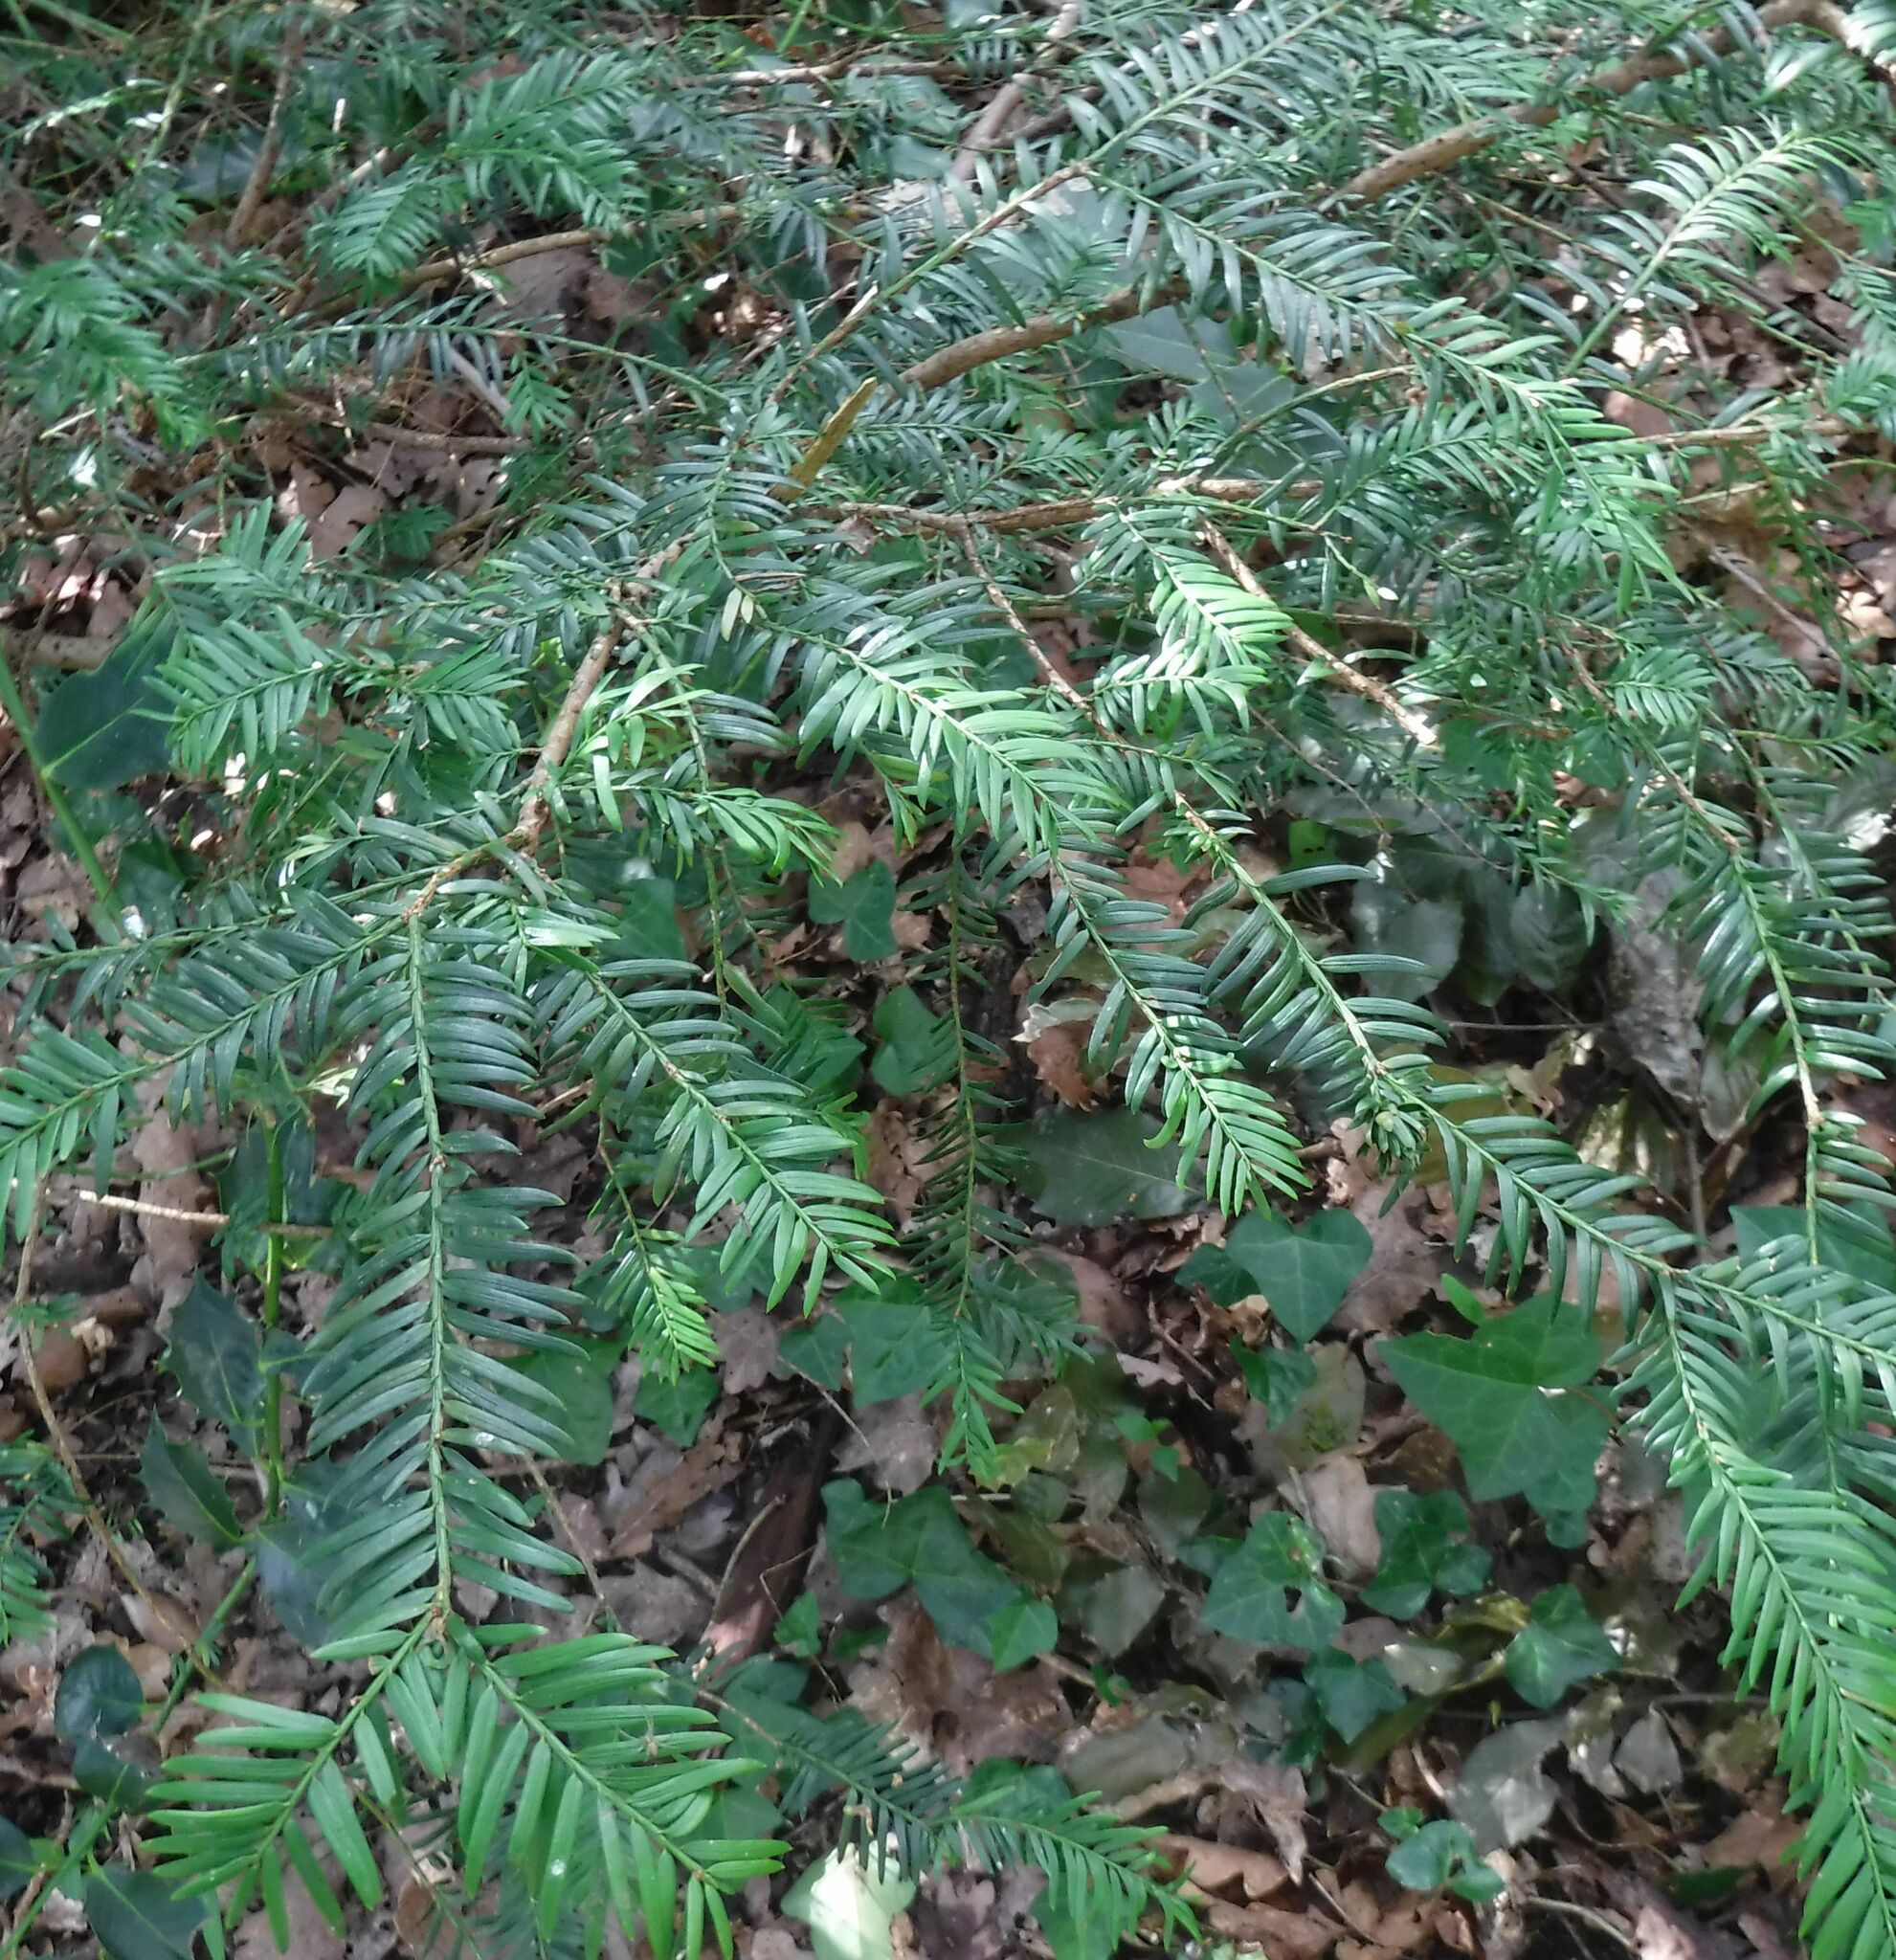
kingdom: Plantae
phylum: Tracheophyta
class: Pinopsida
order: Pinales
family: Taxaceae
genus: Taxus
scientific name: Taxus baccata
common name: Yew
